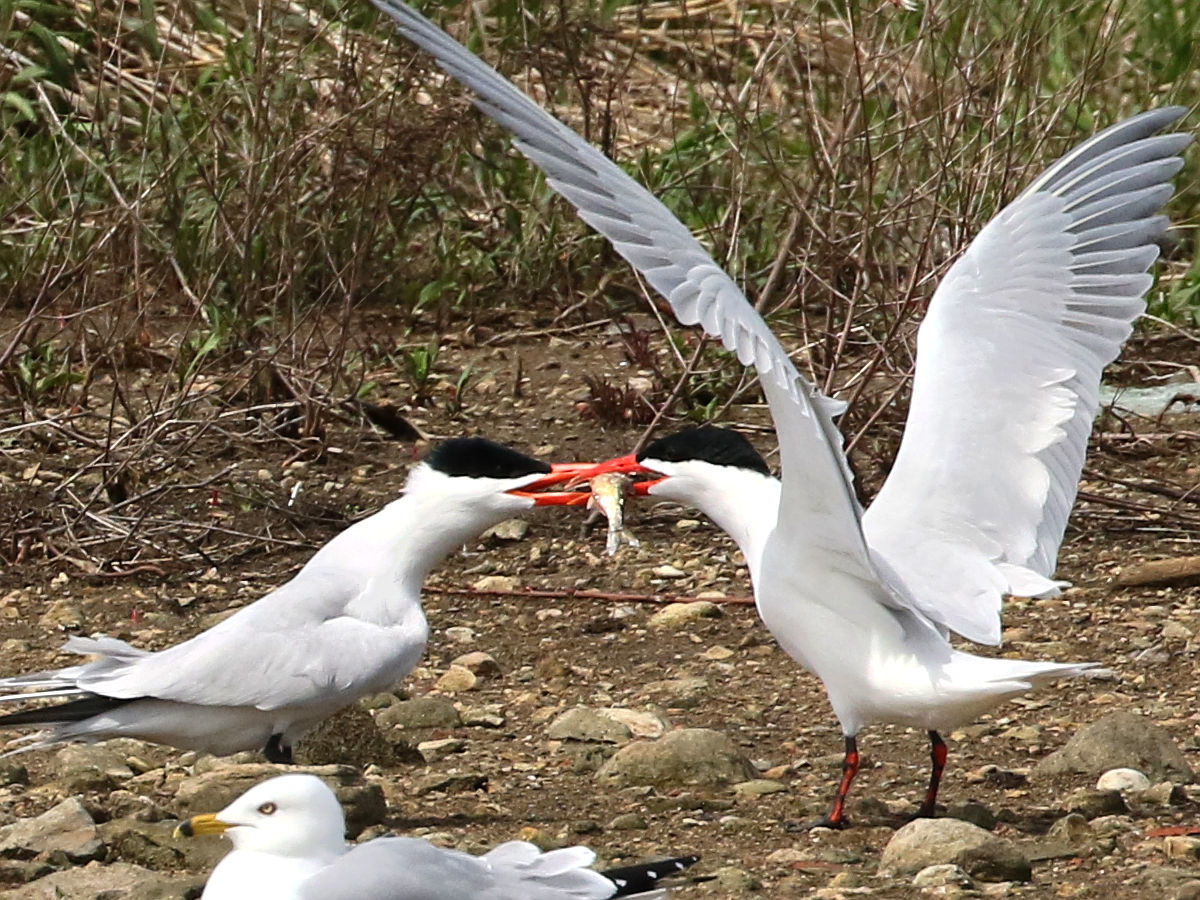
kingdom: Animalia
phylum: Chordata
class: Aves
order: Charadriiformes
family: Laridae
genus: Hydroprogne
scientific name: Hydroprogne caspia
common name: Caspian tern
